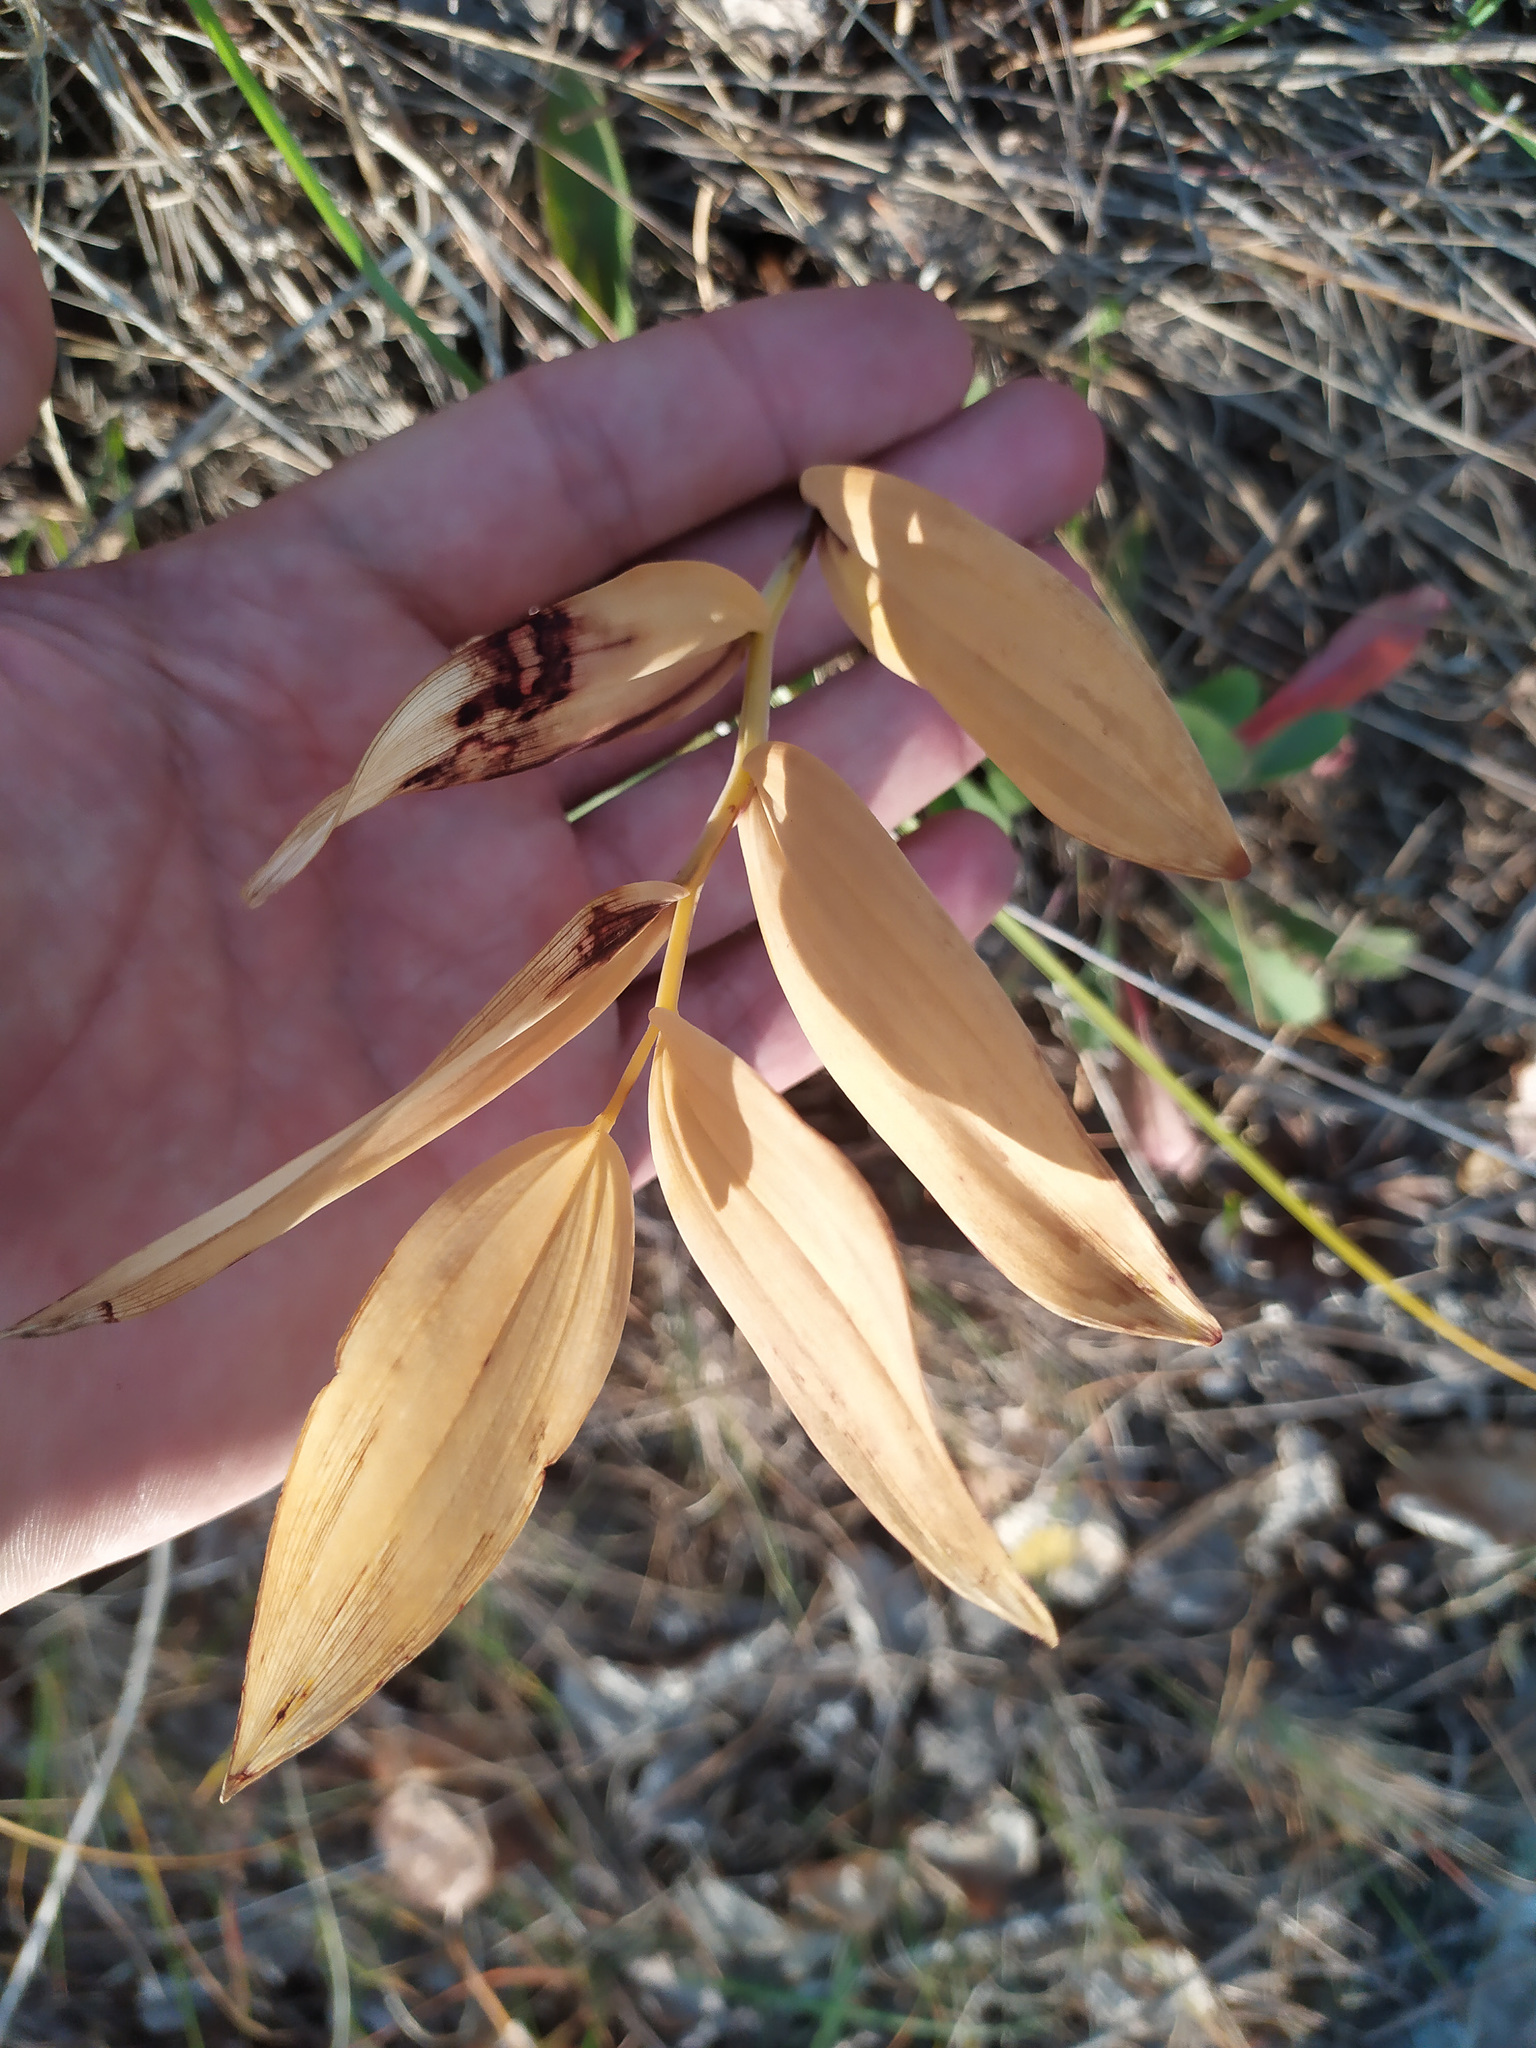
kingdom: Plantae
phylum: Tracheophyta
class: Liliopsida
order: Asparagales
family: Asparagaceae
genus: Polygonatum
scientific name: Polygonatum odoratum
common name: Angular solomon's-seal
